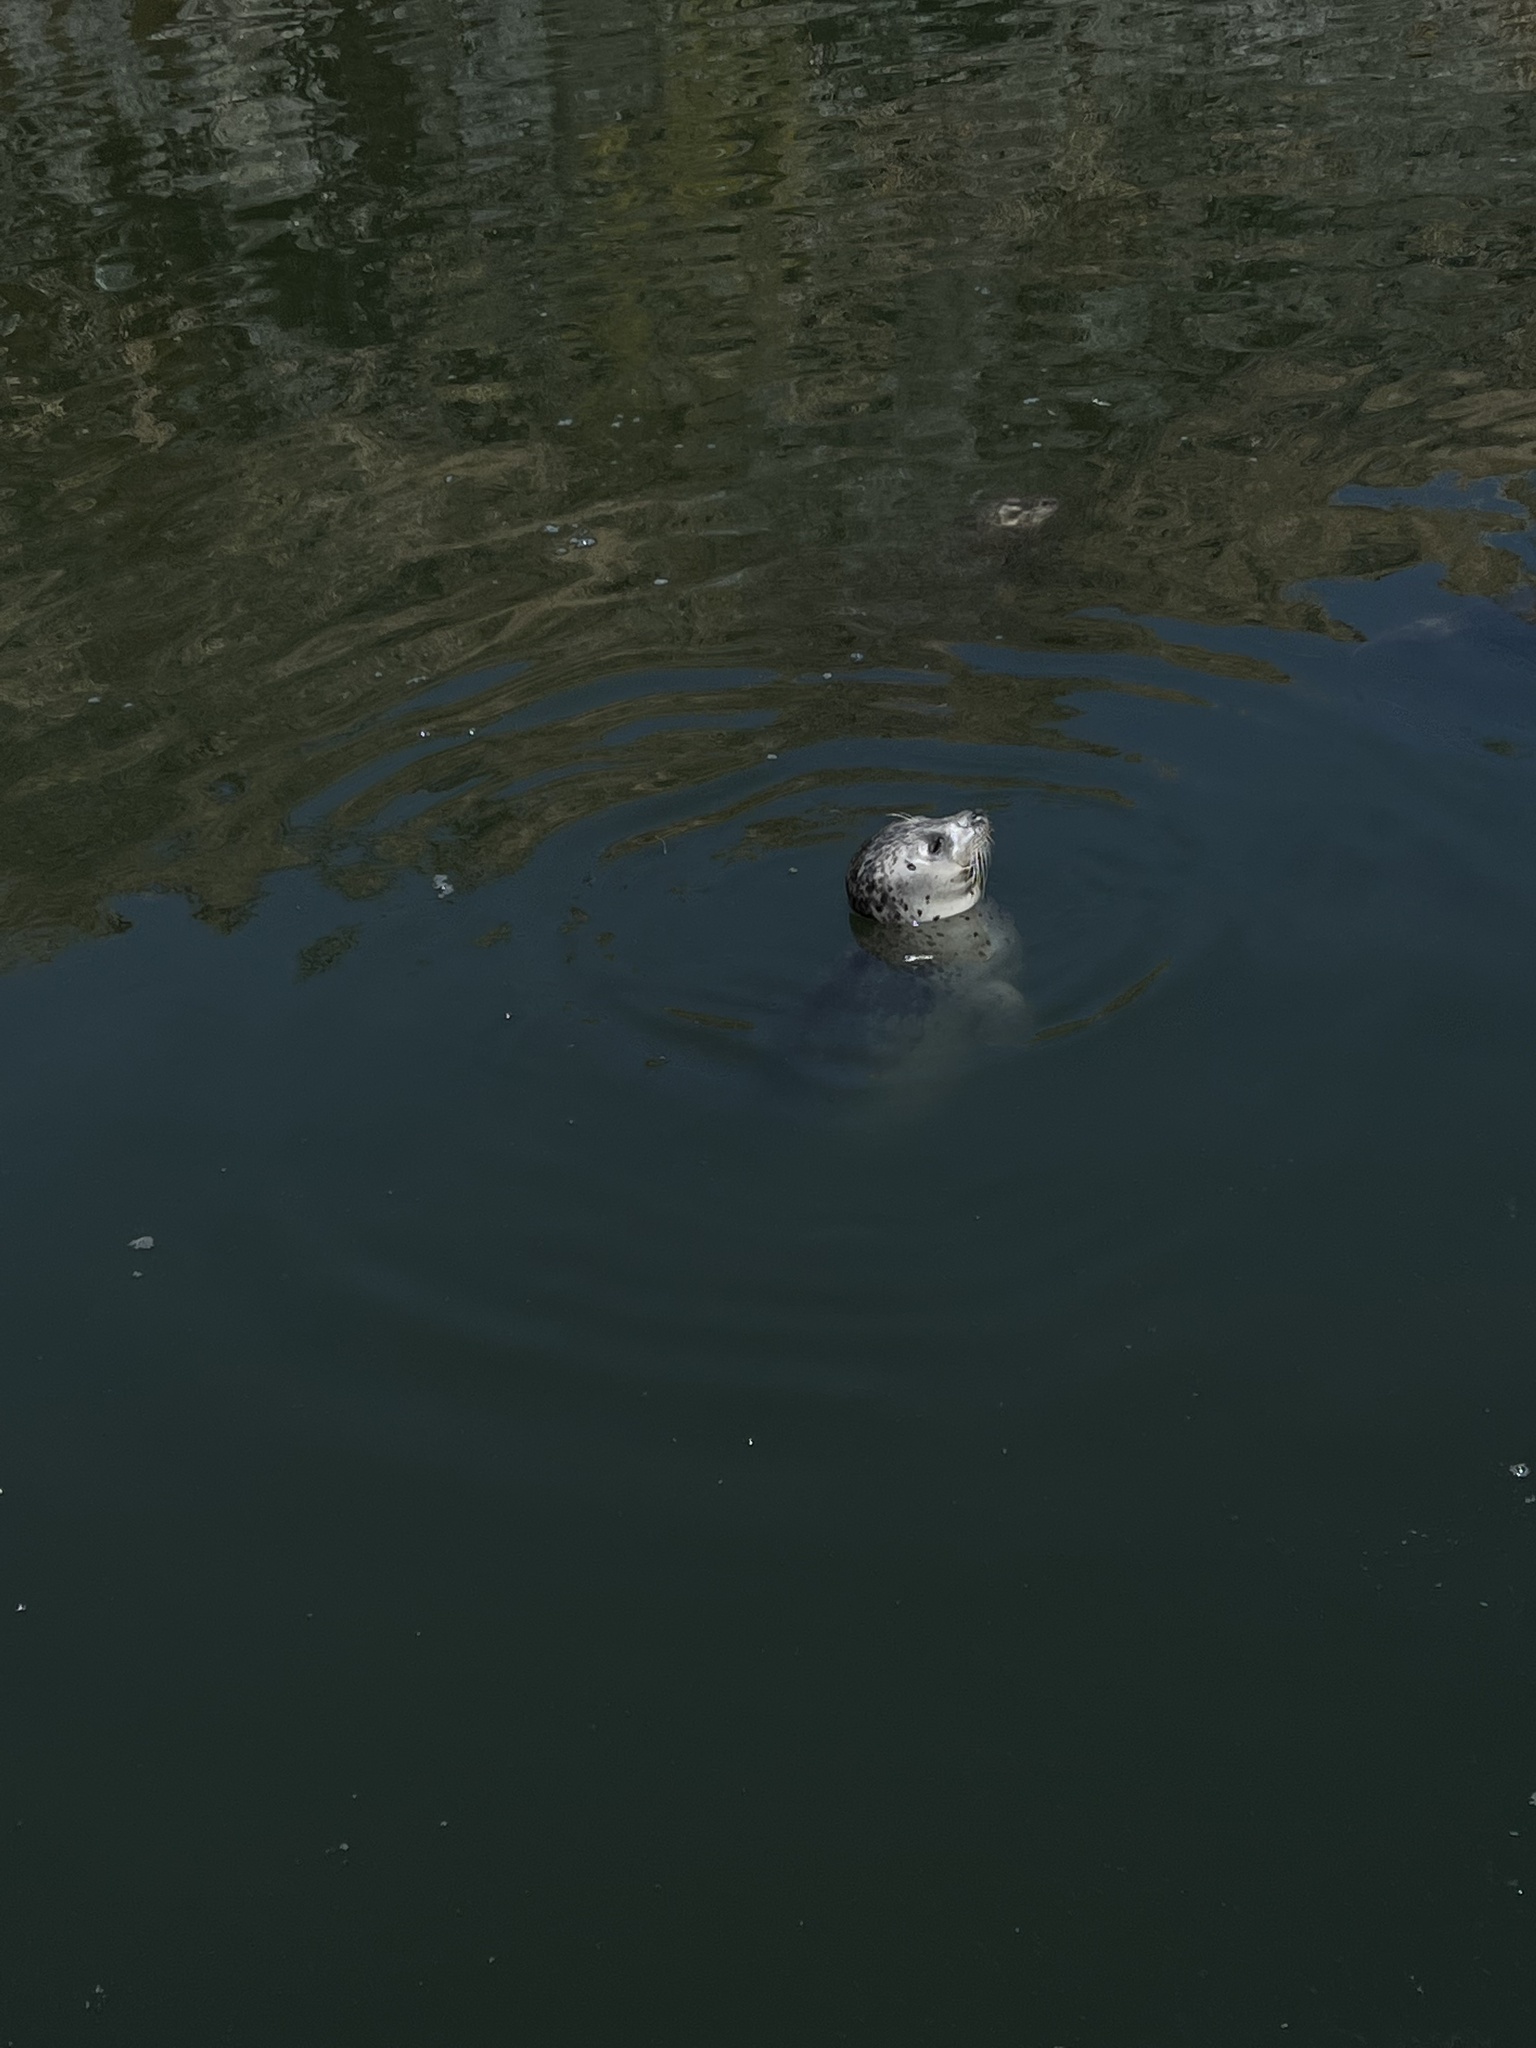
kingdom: Animalia
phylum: Chordata
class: Mammalia
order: Carnivora
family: Phocidae
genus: Phoca
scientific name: Phoca vitulina
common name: Harbor seal
